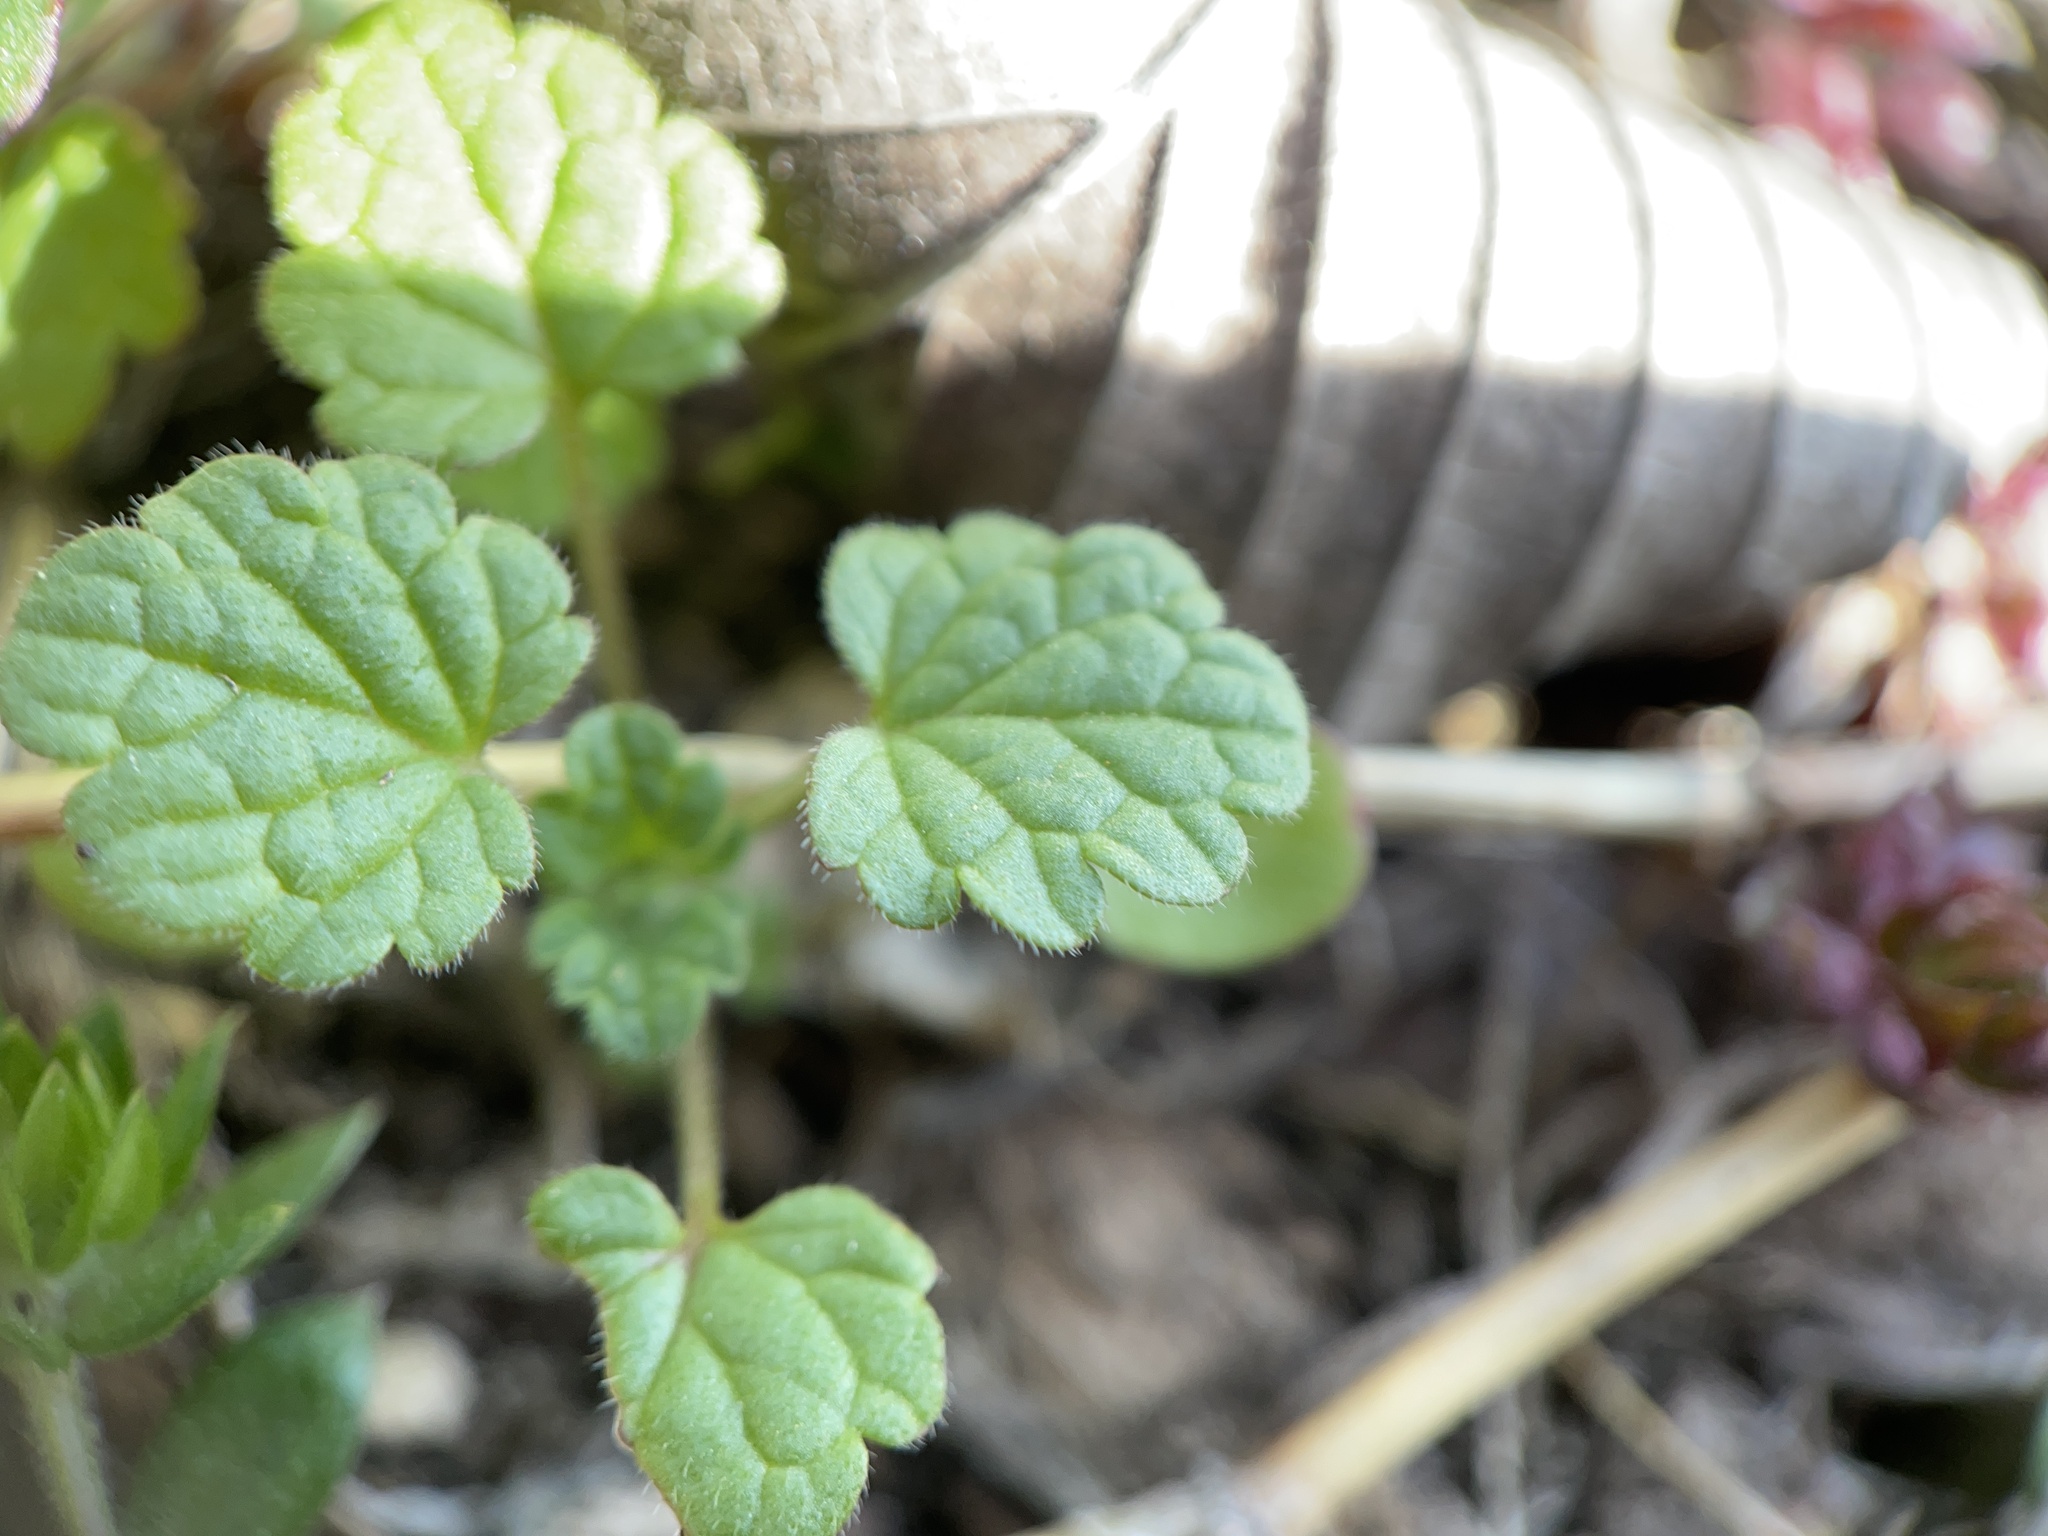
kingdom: Plantae
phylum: Tracheophyta
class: Magnoliopsida
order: Lamiales
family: Lamiaceae
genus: Lamium
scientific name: Lamium amplexicaule
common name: Henbit dead-nettle
